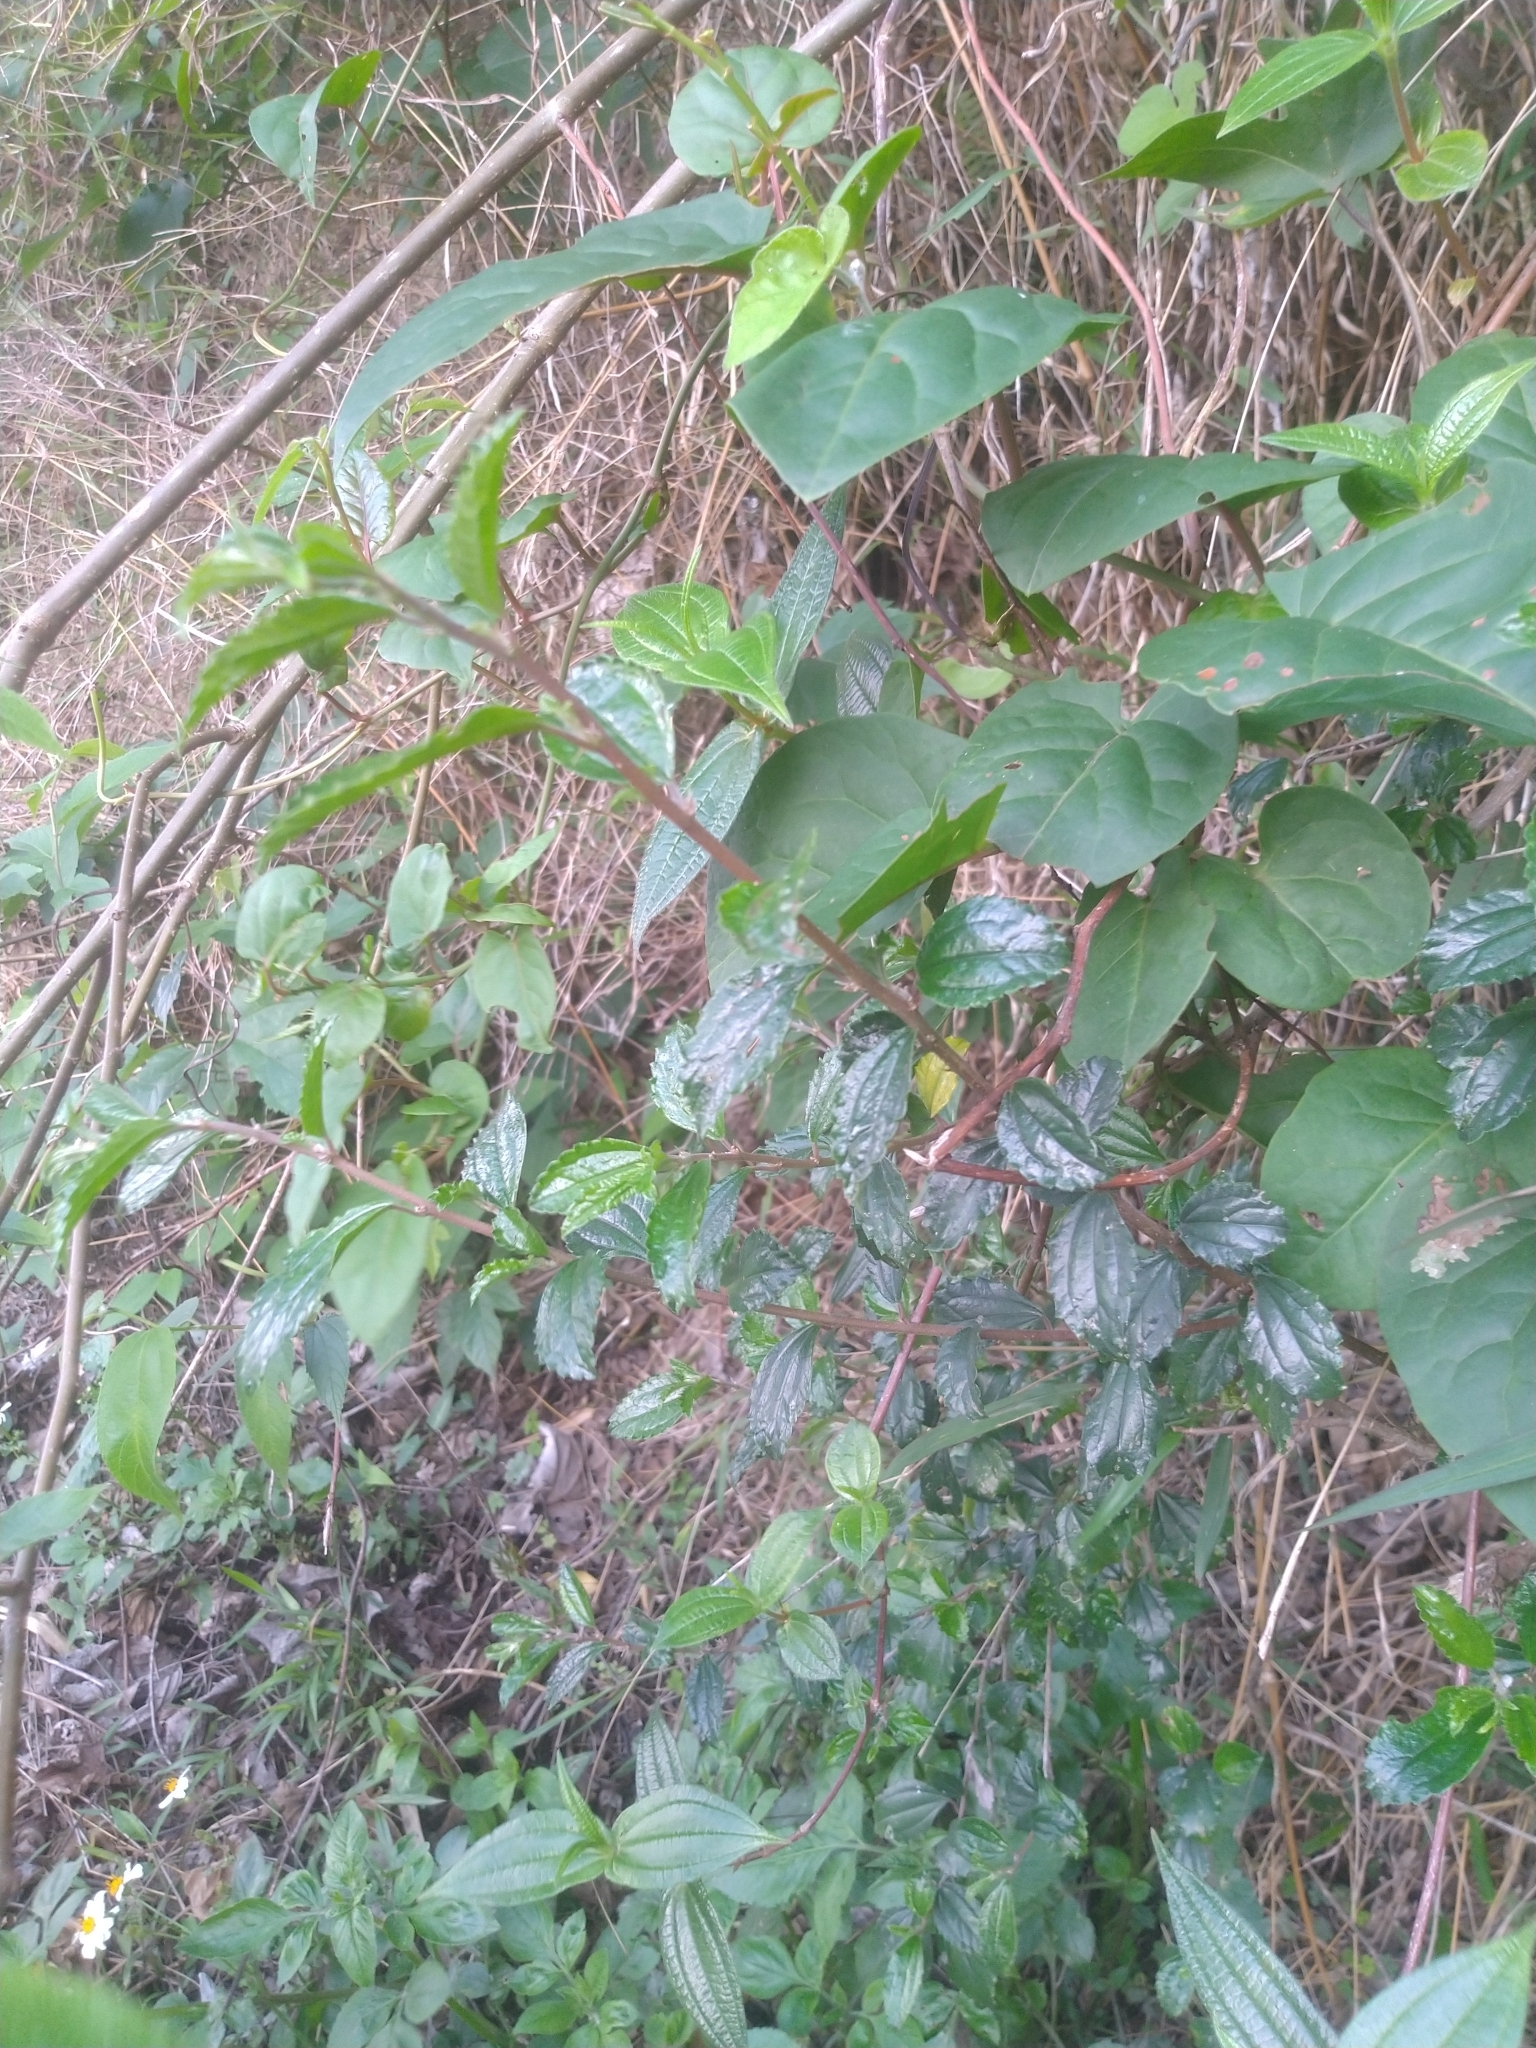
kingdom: Plantae
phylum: Tracheophyta
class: Magnoliopsida
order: Rosales
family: Urticaceae
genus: Pouzolzia
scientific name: Pouzolzia sanguinea
